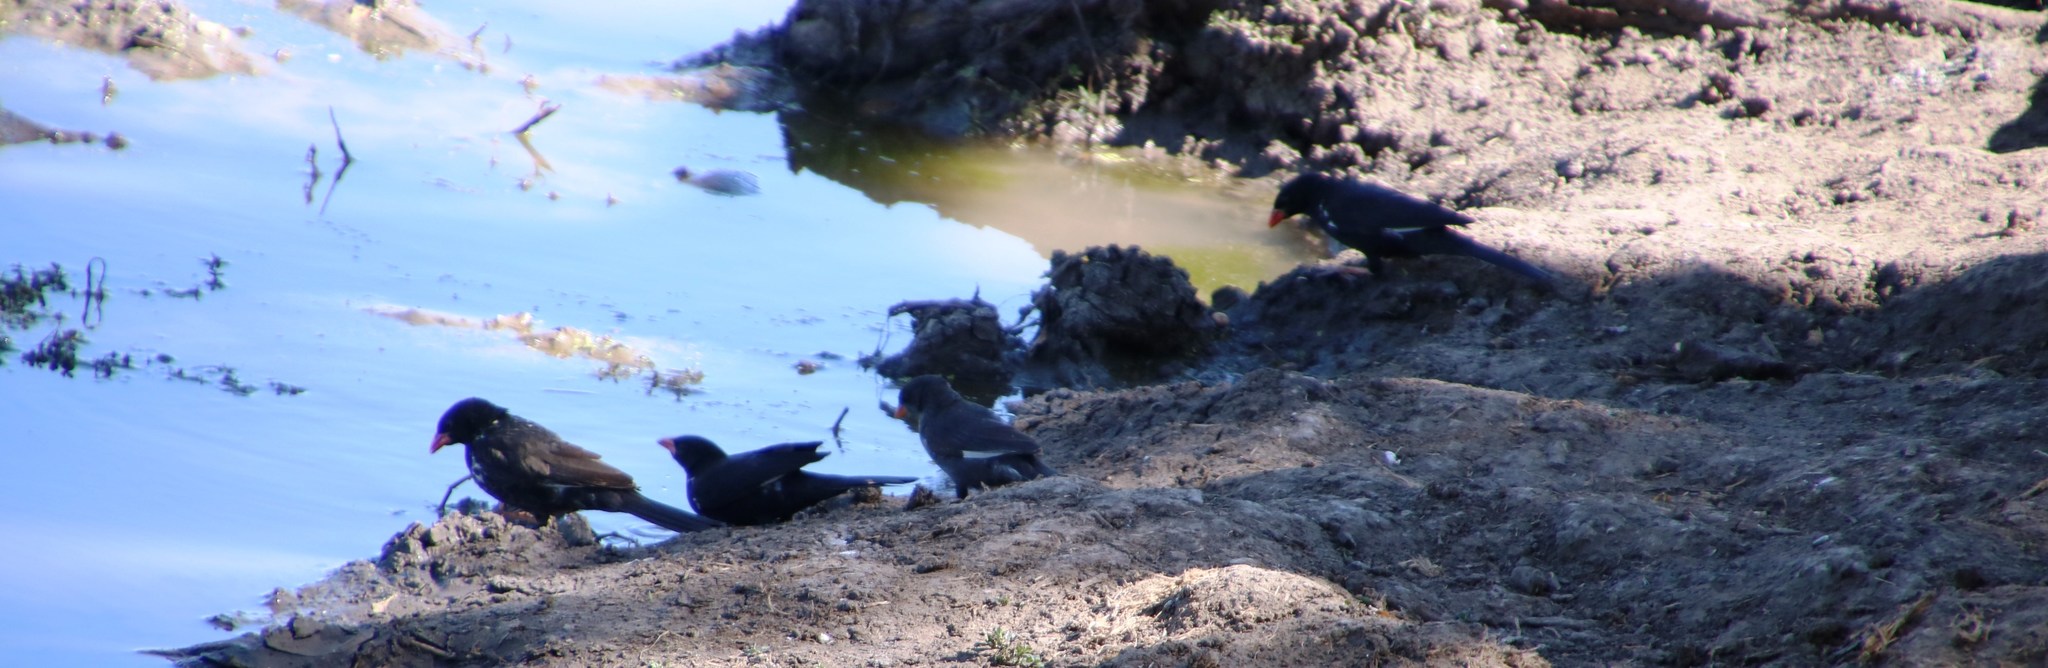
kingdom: Animalia
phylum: Chordata
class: Aves
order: Passeriformes
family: Ploceidae
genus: Bubalornis
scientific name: Bubalornis niger
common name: Red-billed buffalo weaver
